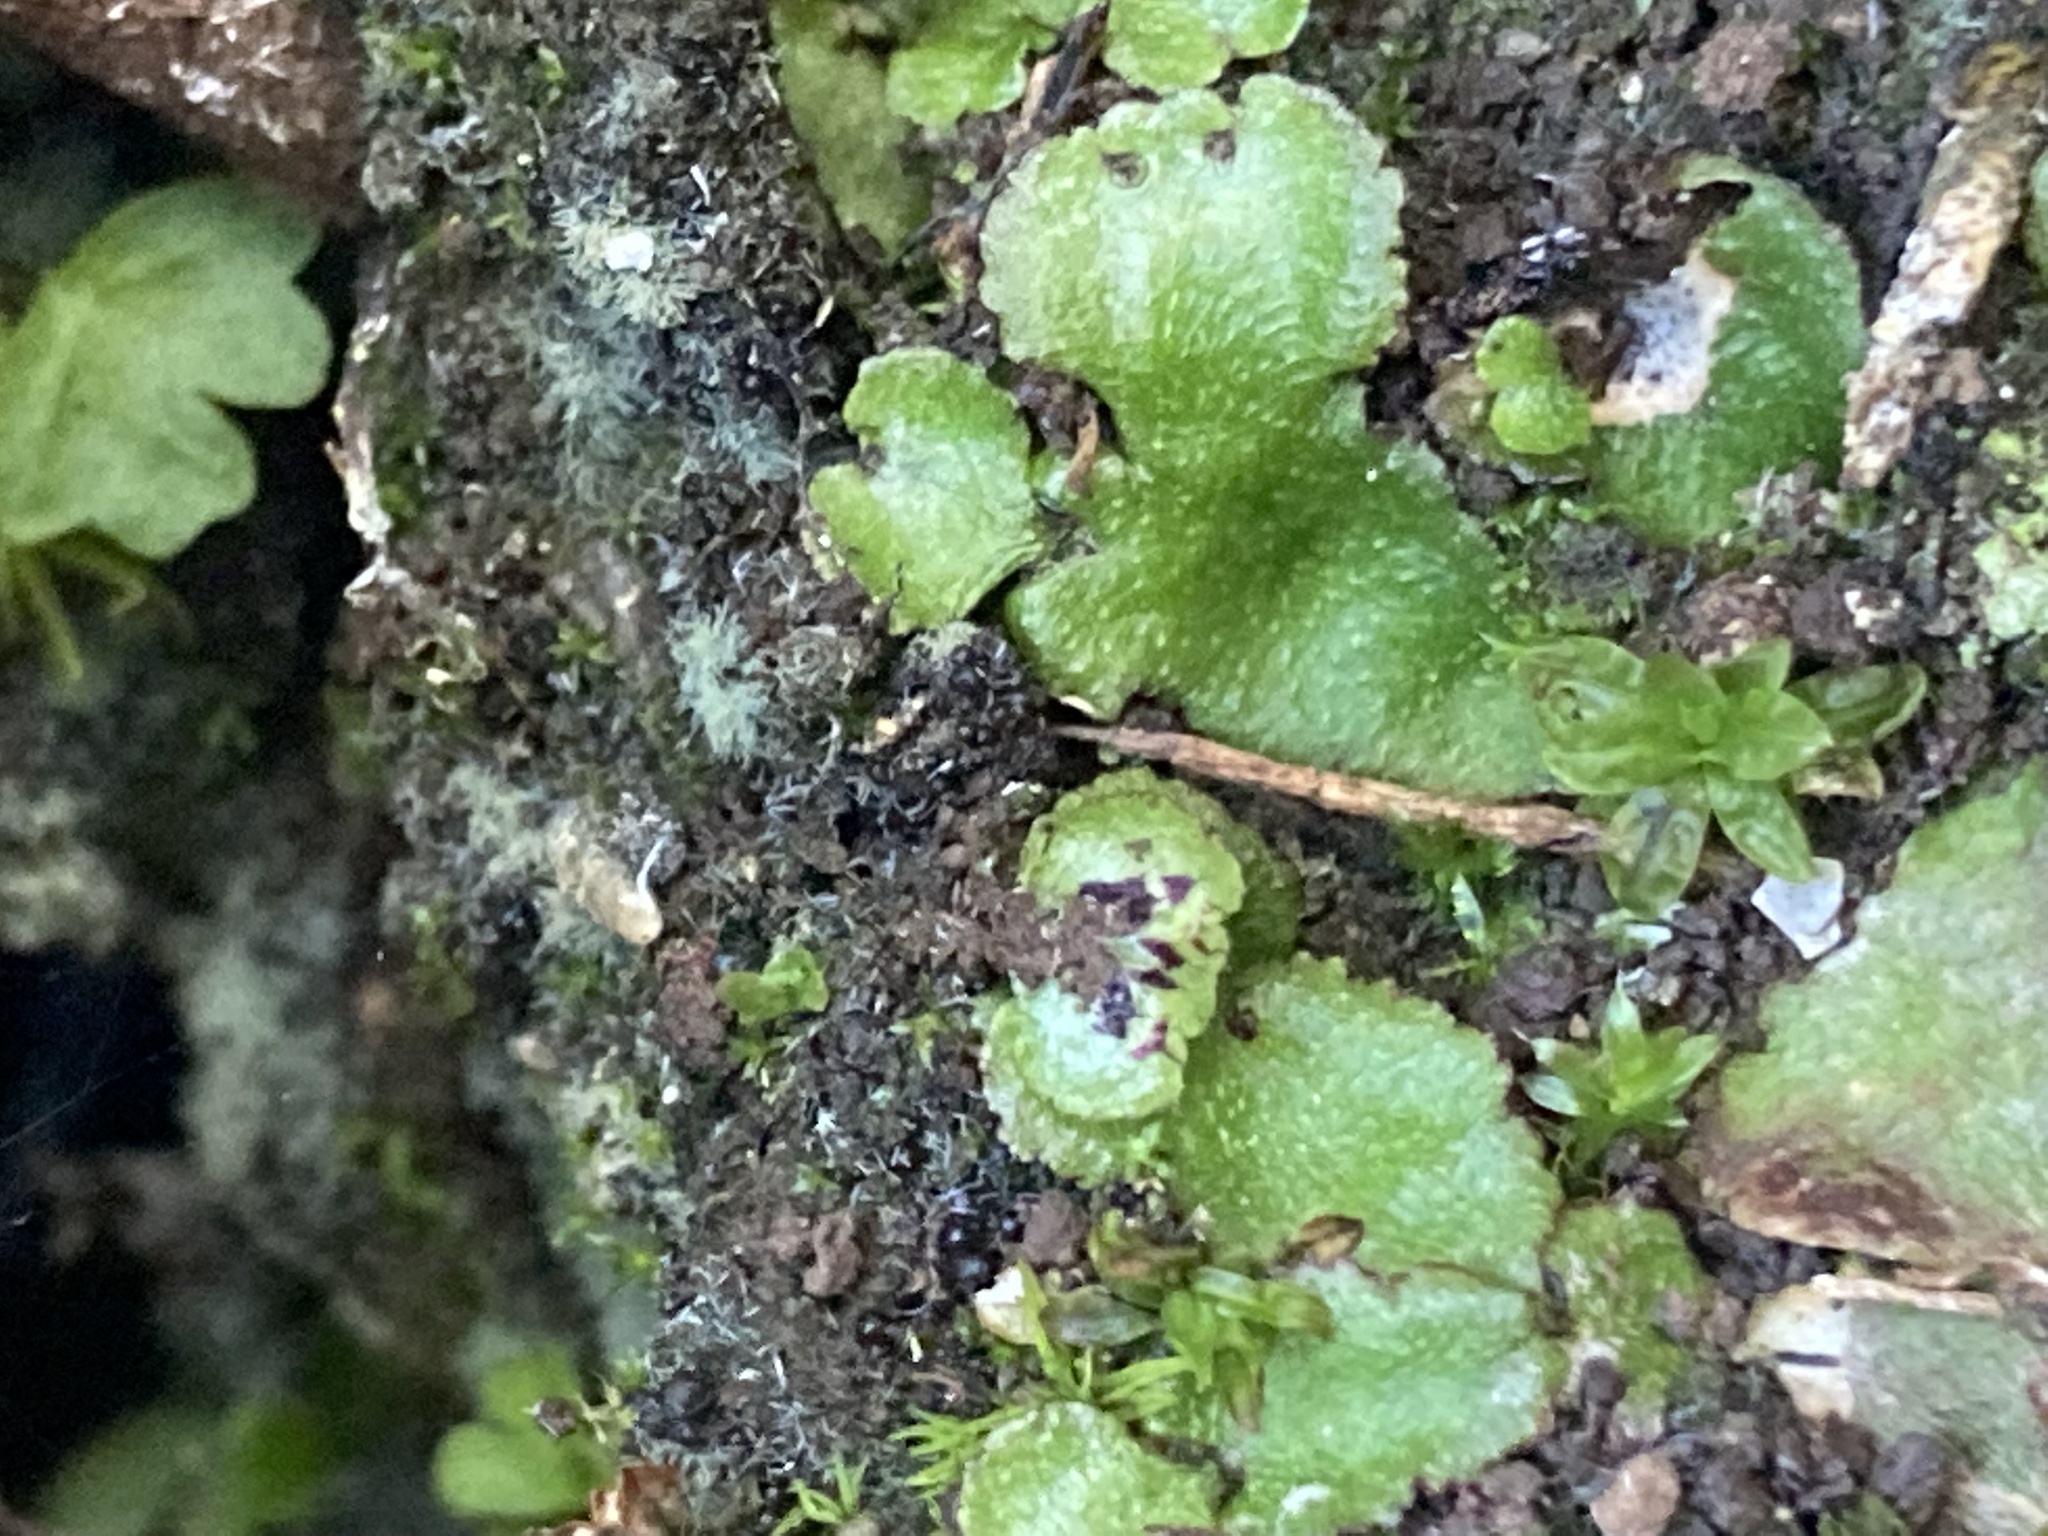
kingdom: Plantae
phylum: Marchantiophyta
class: Marchantiopsida
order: Marchantiales
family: Aytoniaceae
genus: Reboulia
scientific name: Reboulia hemisphaerica
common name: Purple-margined liverwort
